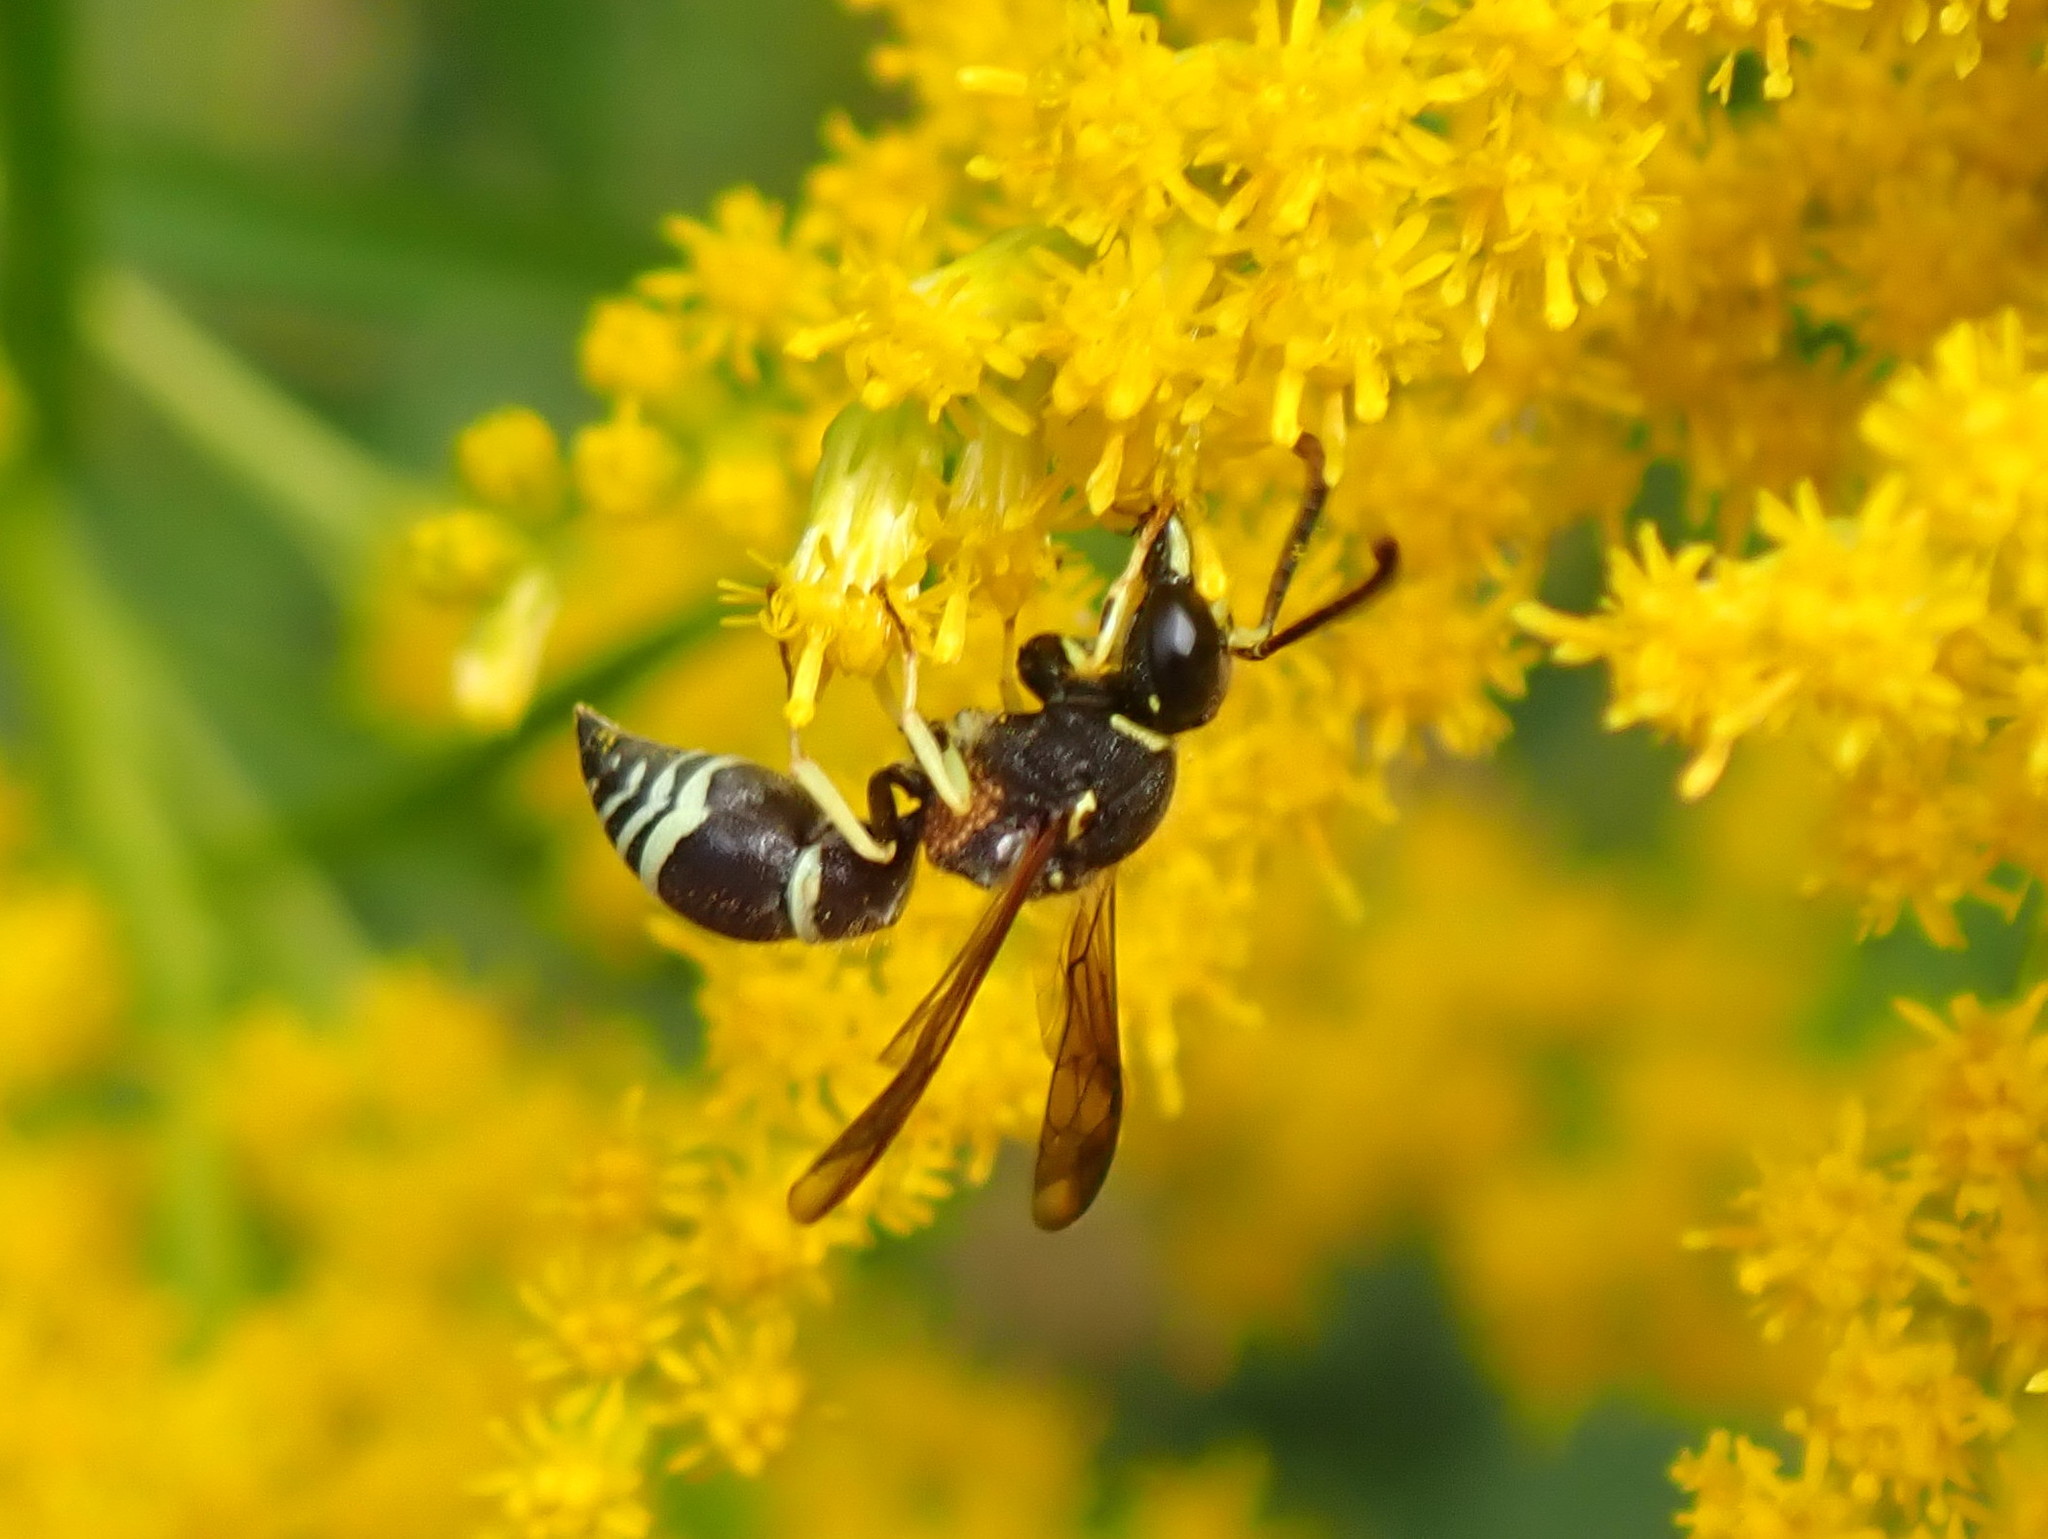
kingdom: Animalia
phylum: Arthropoda
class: Insecta
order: Hymenoptera
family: Vespidae
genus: Ancistrocerus
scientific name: Ancistrocerus
